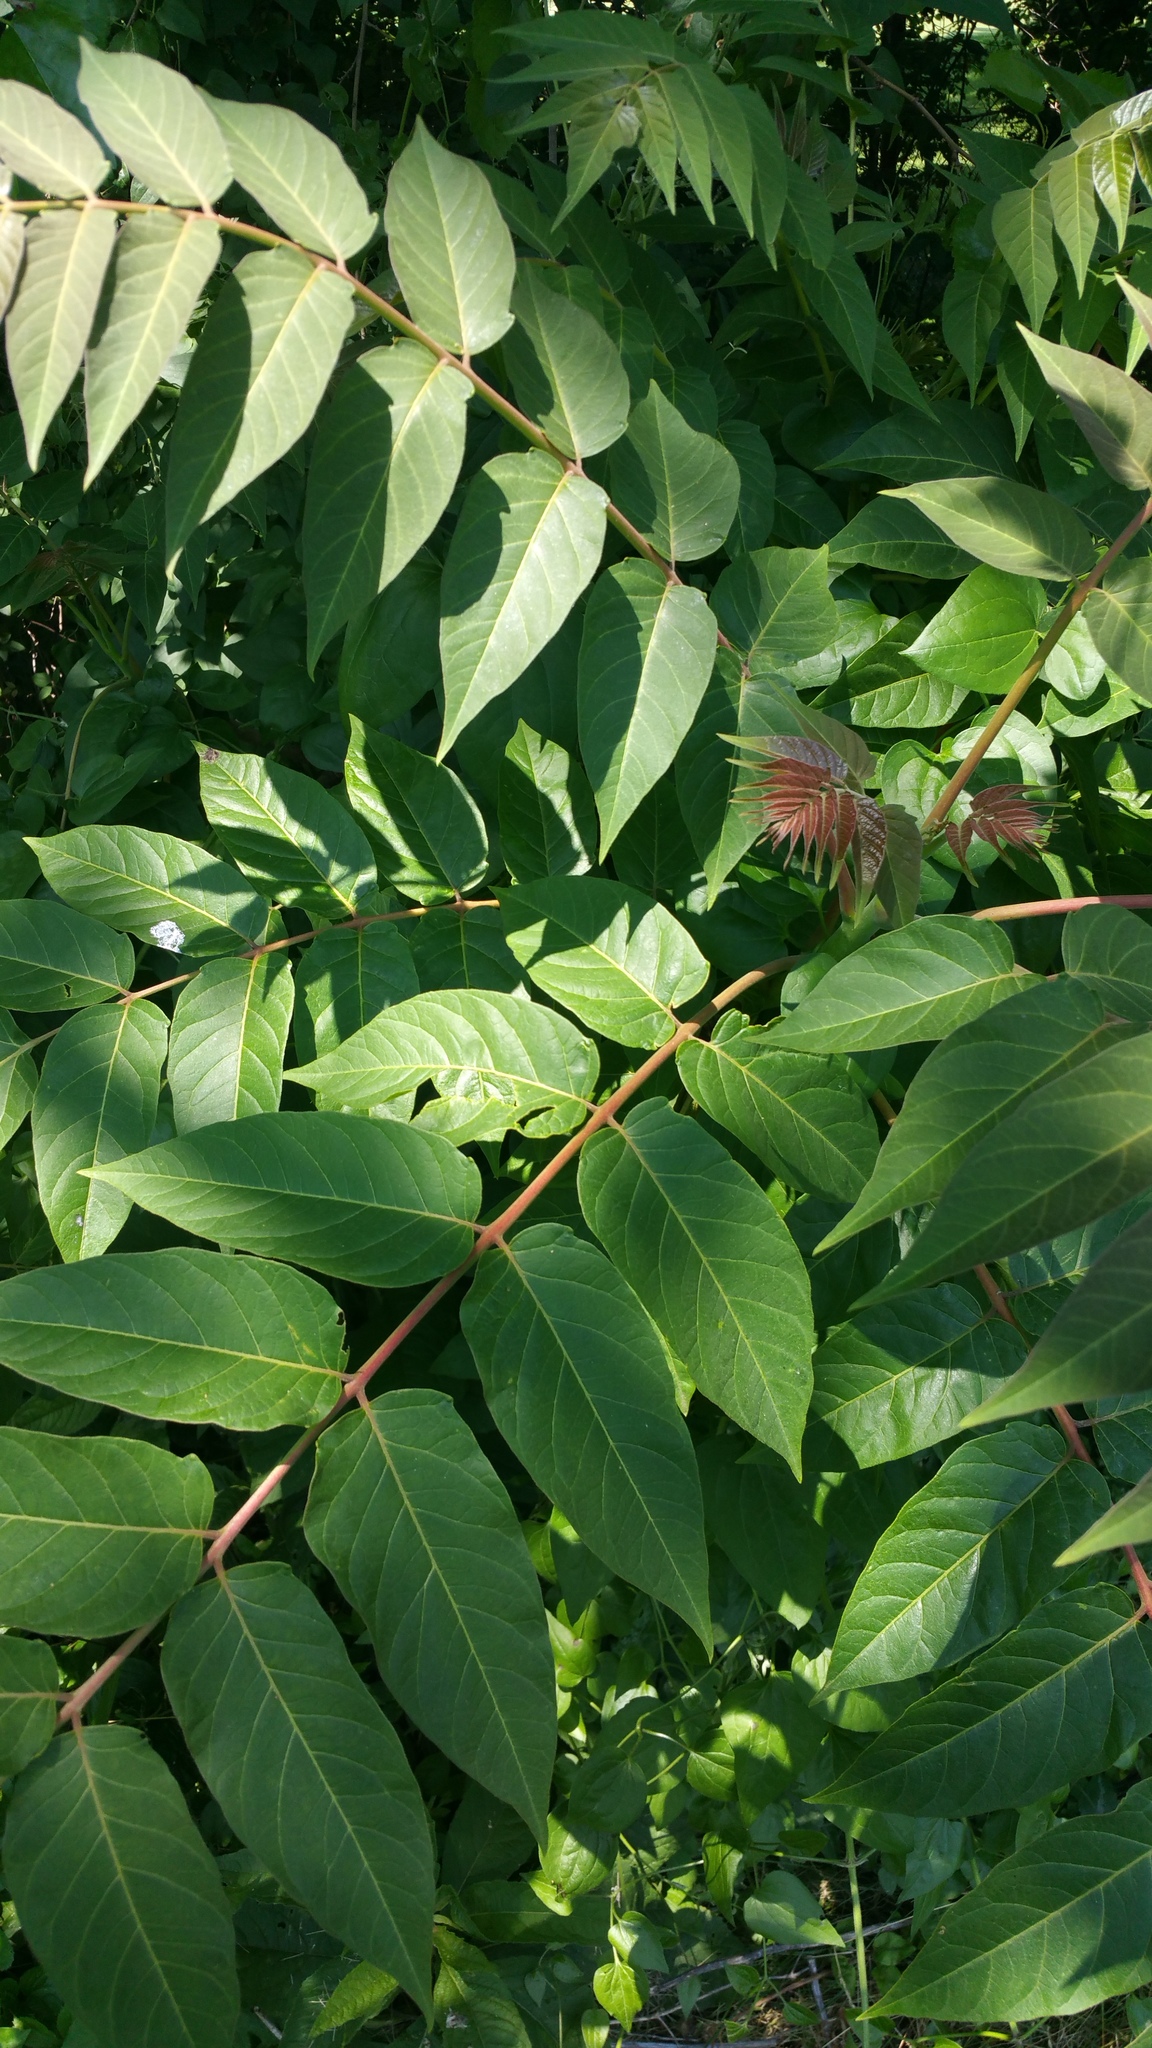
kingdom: Plantae
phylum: Tracheophyta
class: Magnoliopsida
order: Sapindales
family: Simaroubaceae
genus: Ailanthus
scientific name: Ailanthus altissima
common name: Tree-of-heaven
